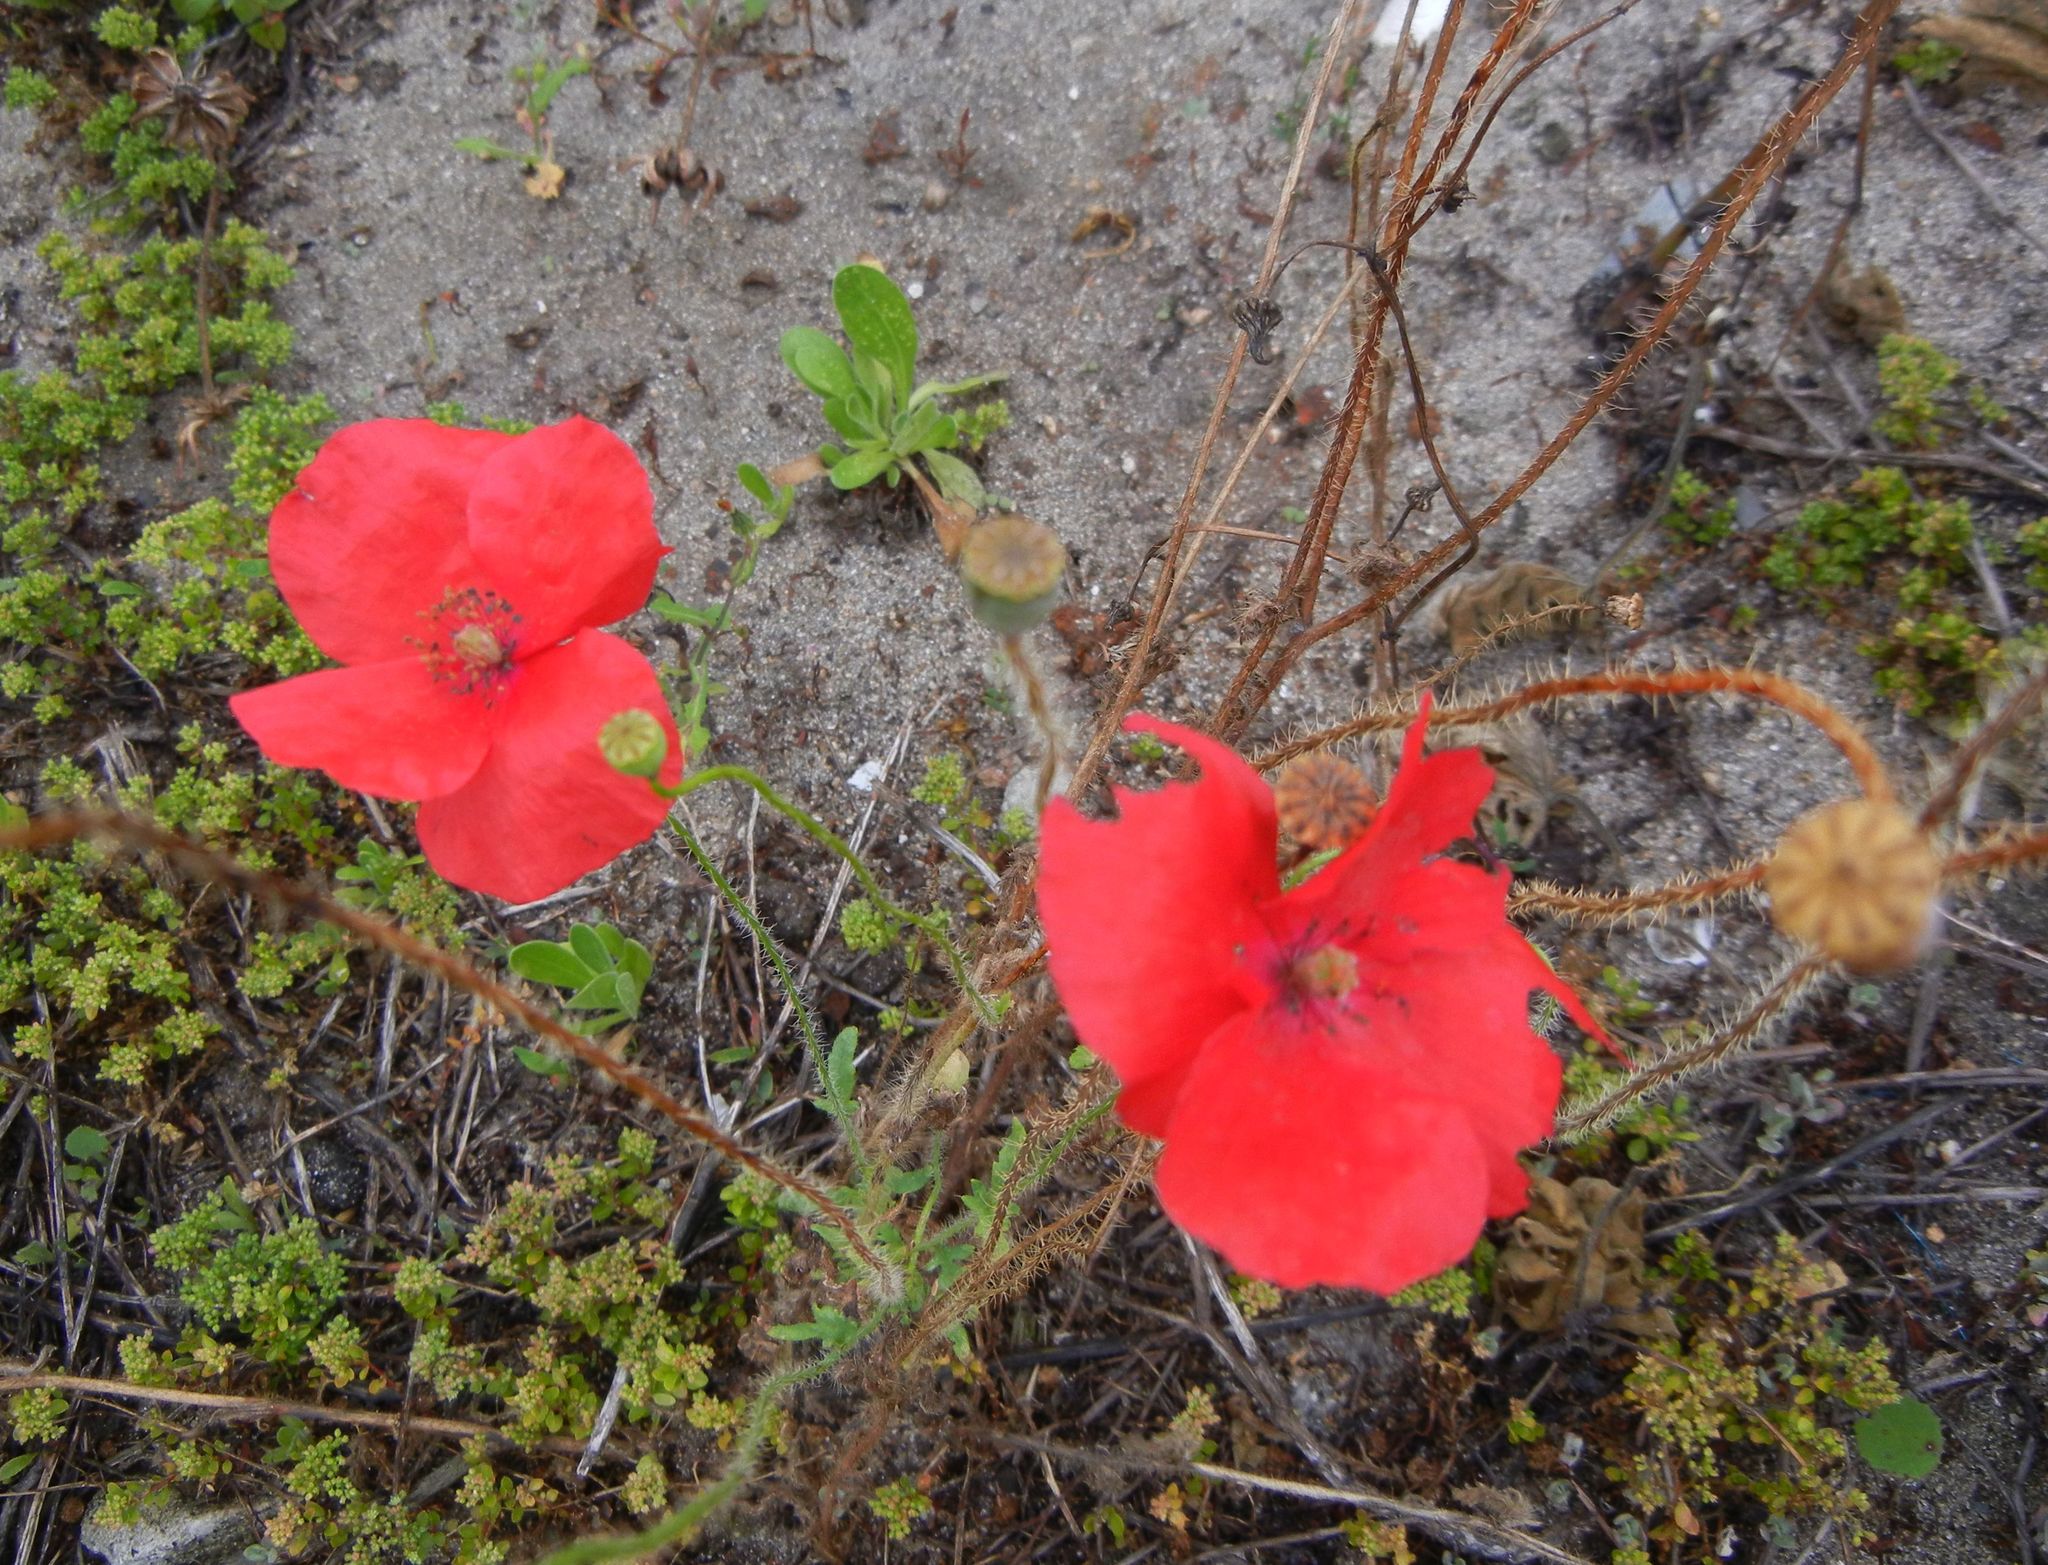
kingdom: Plantae
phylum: Tracheophyta
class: Magnoliopsida
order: Ranunculales
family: Papaveraceae
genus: Papaver
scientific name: Papaver rhoeas
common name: Corn poppy
